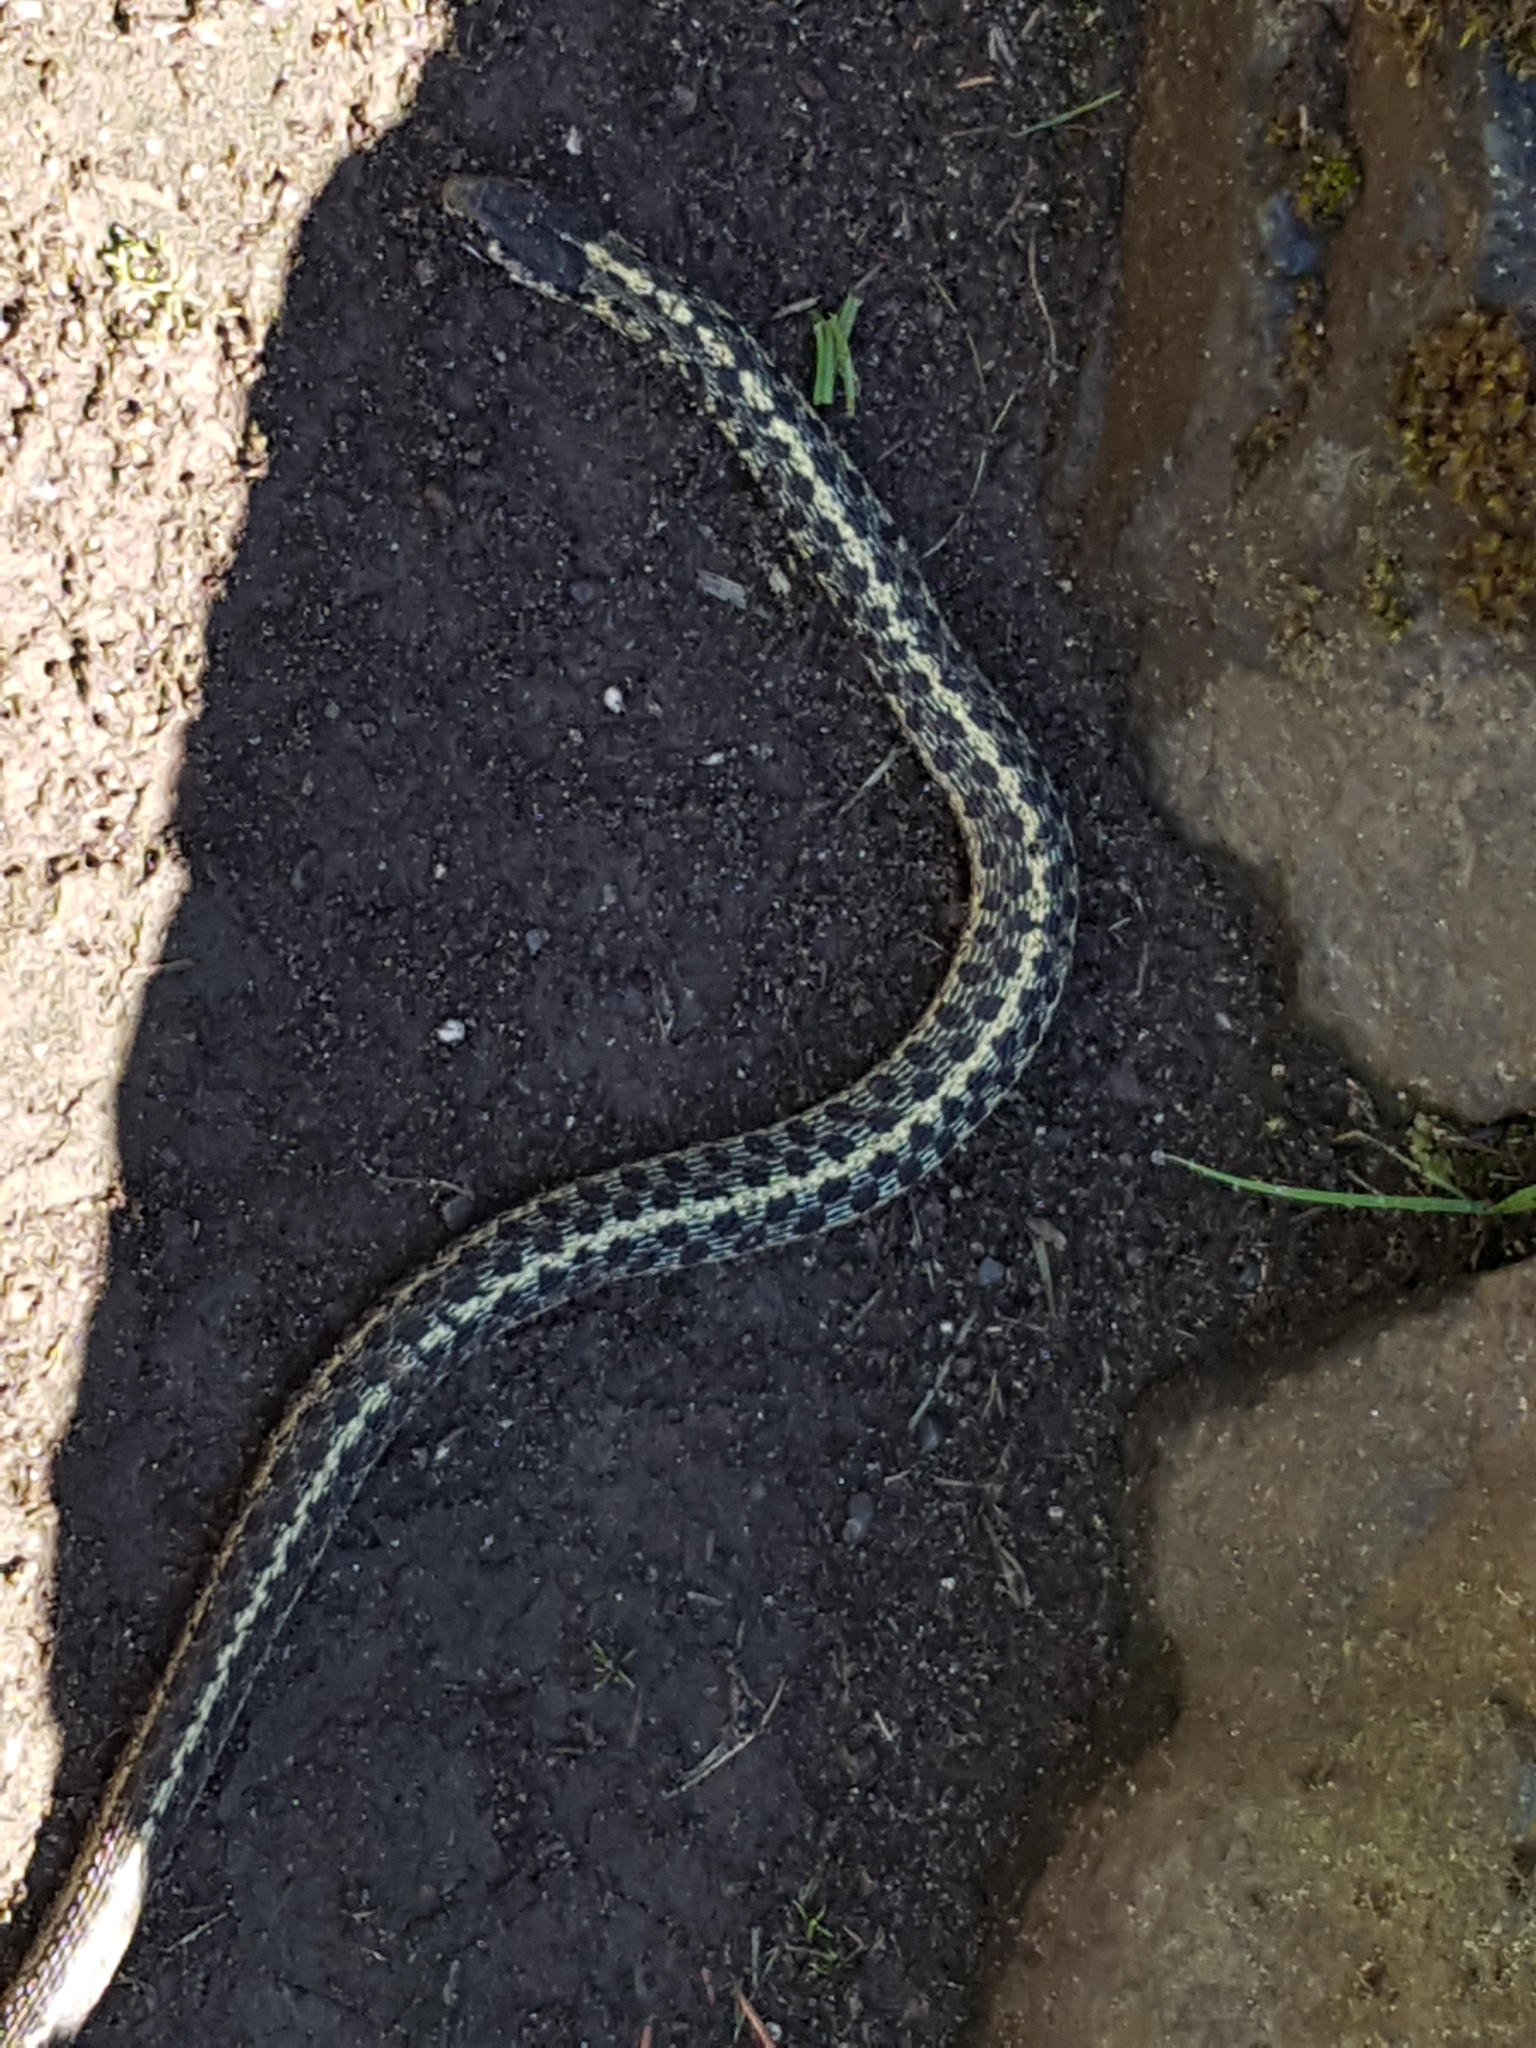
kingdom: Animalia
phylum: Chordata
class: Squamata
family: Colubridae
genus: Thamnophis
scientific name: Thamnophis elegans
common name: Western terrestrial garter snake
